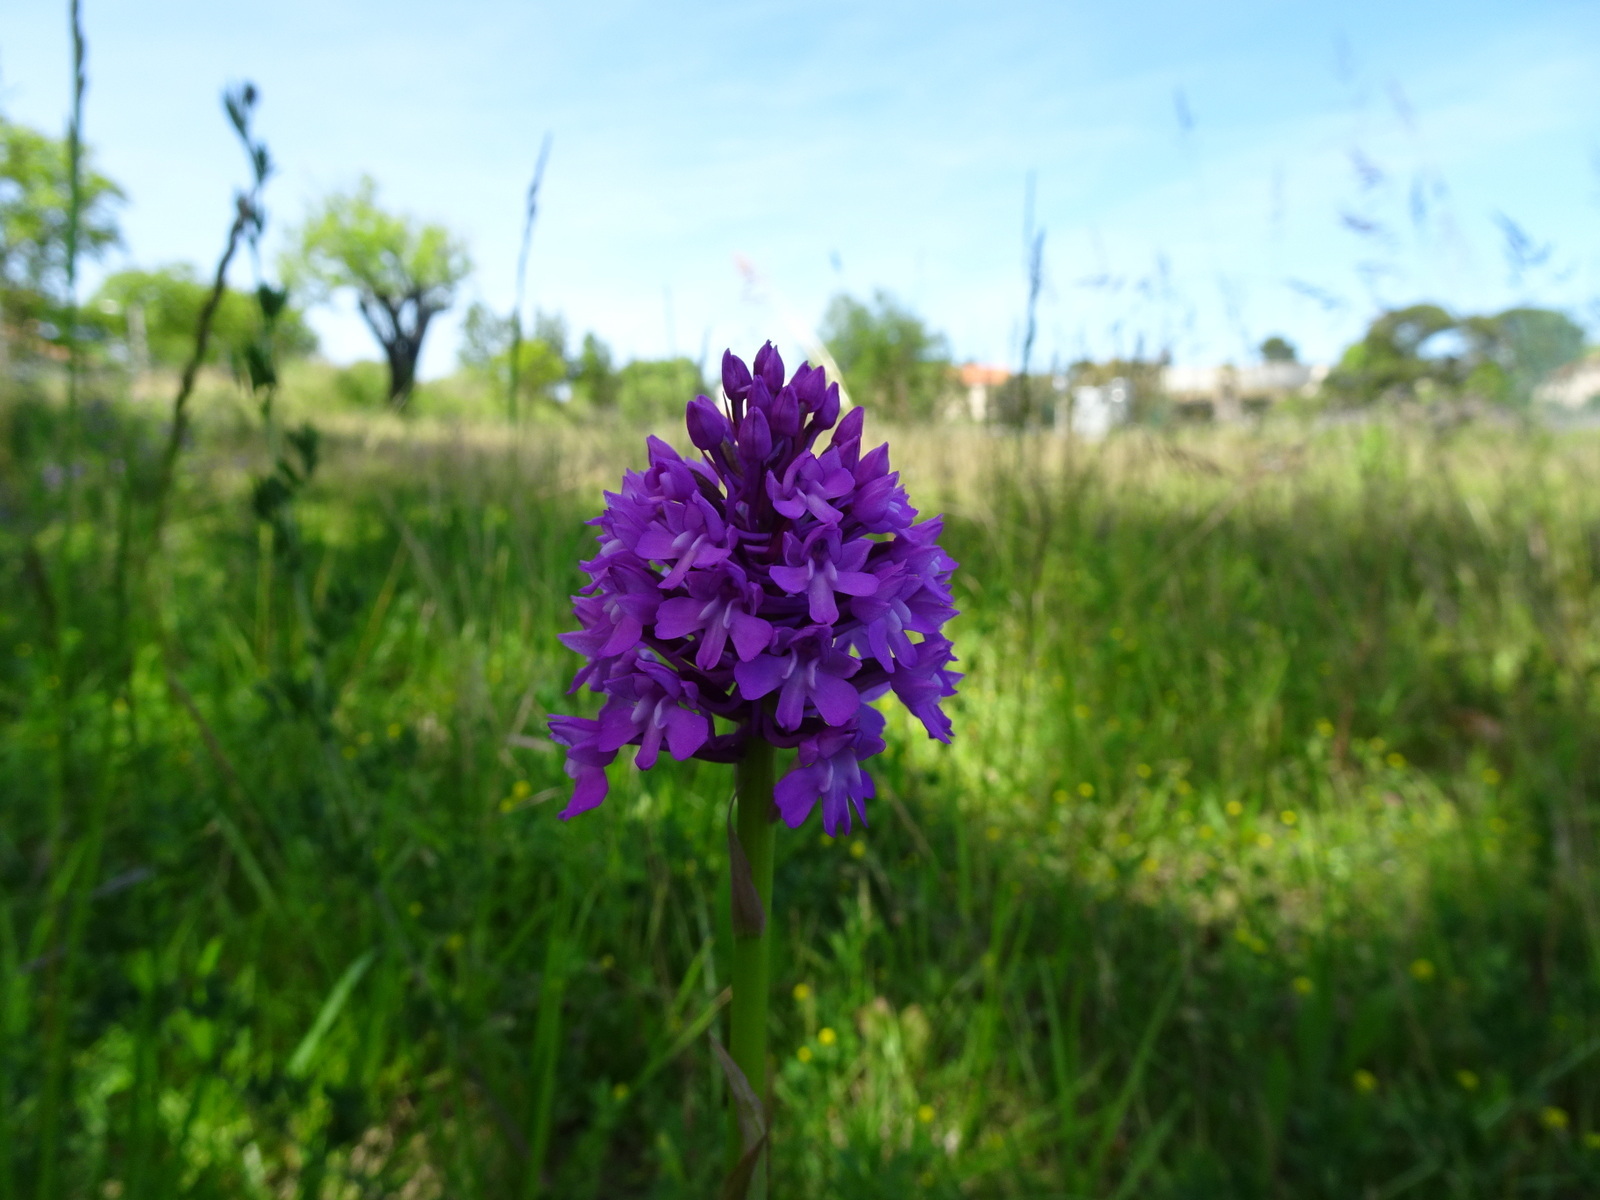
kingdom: Plantae
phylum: Tracheophyta
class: Liliopsida
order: Asparagales
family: Orchidaceae
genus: Anacamptis
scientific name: Anacamptis pyramidalis
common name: Pyramidal orchid
